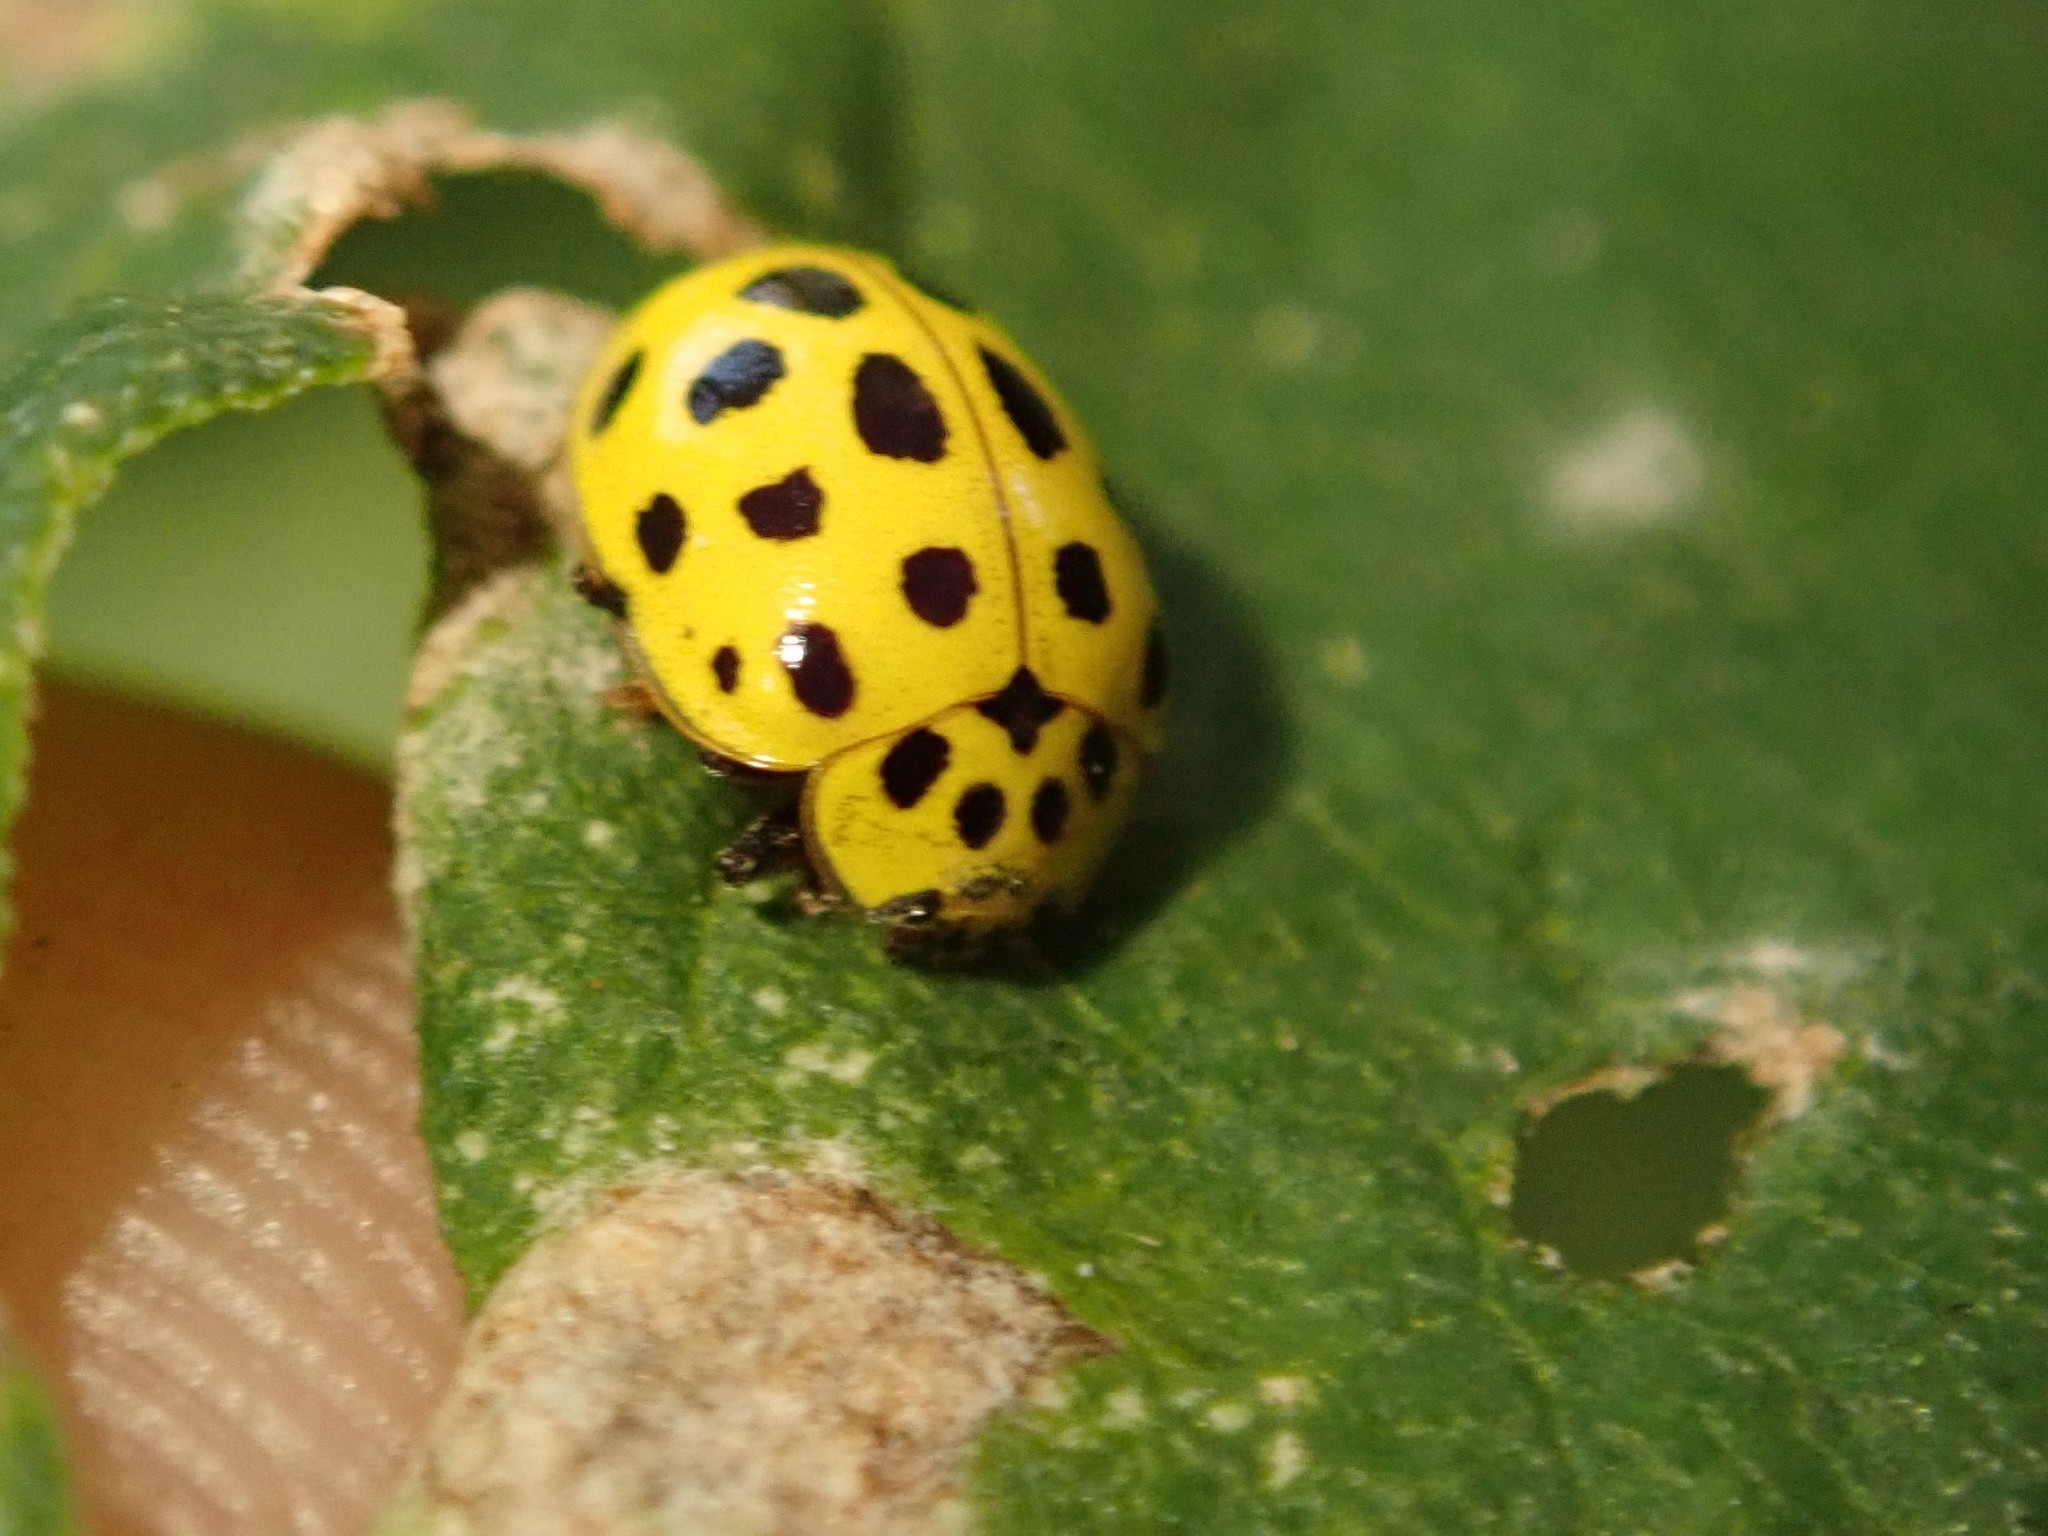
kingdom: Animalia
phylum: Arthropoda
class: Insecta
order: Coleoptera
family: Coccinellidae
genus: Psyllobora
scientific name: Psyllobora vigintiduopunctata
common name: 22-spot ladybird
